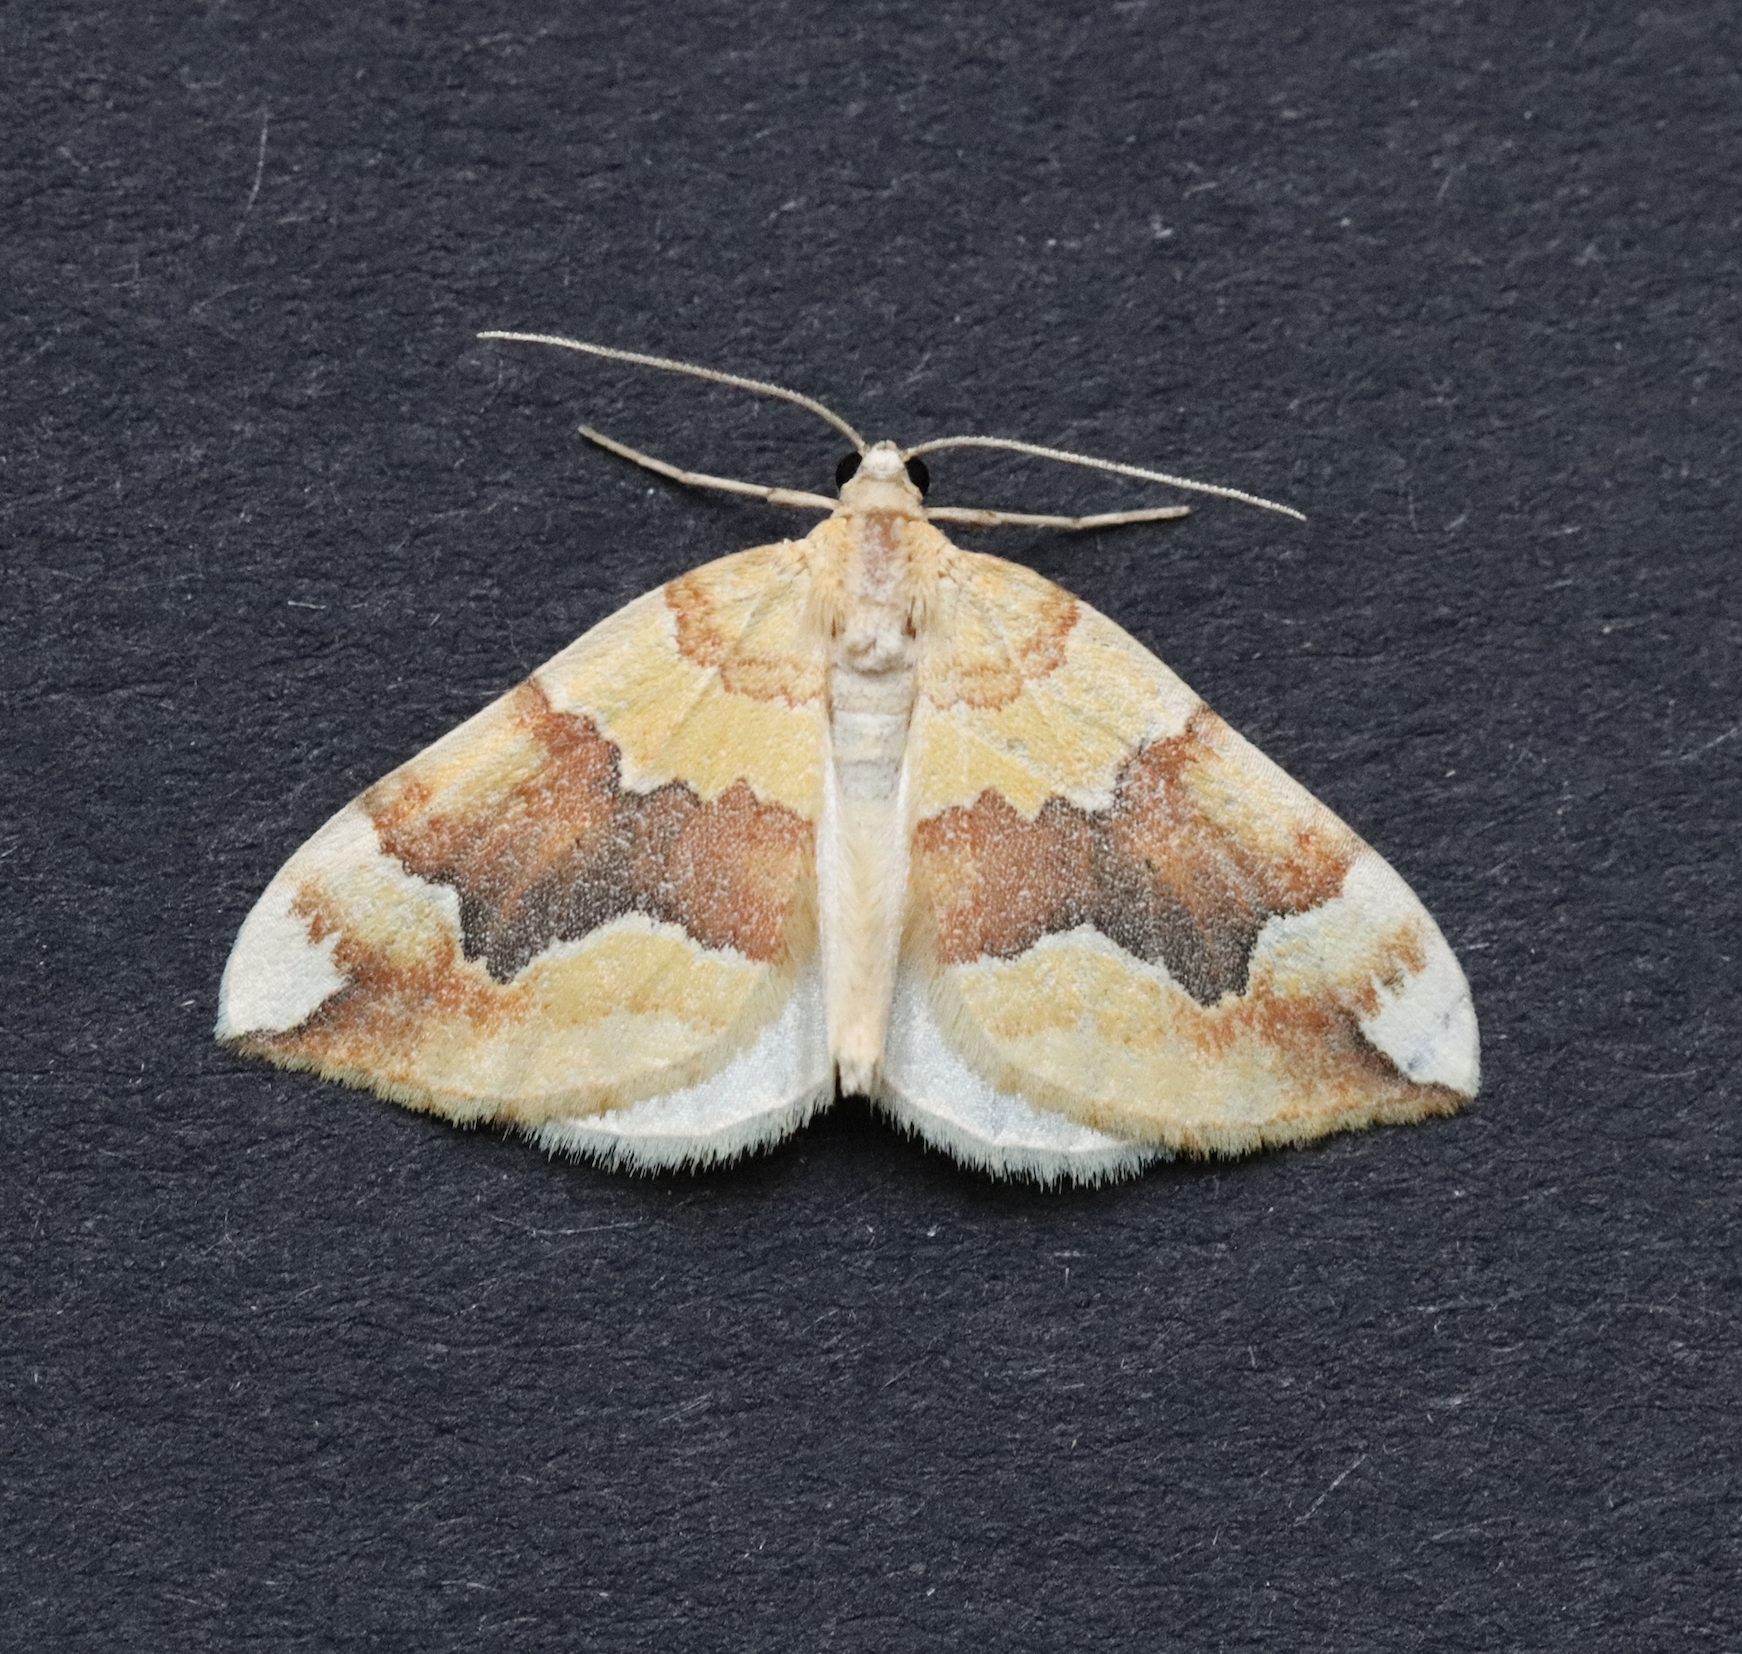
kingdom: Animalia
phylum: Arthropoda
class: Insecta
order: Lepidoptera
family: Geometridae
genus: Cidaria
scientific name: Cidaria fulvata
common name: Barred yellow
